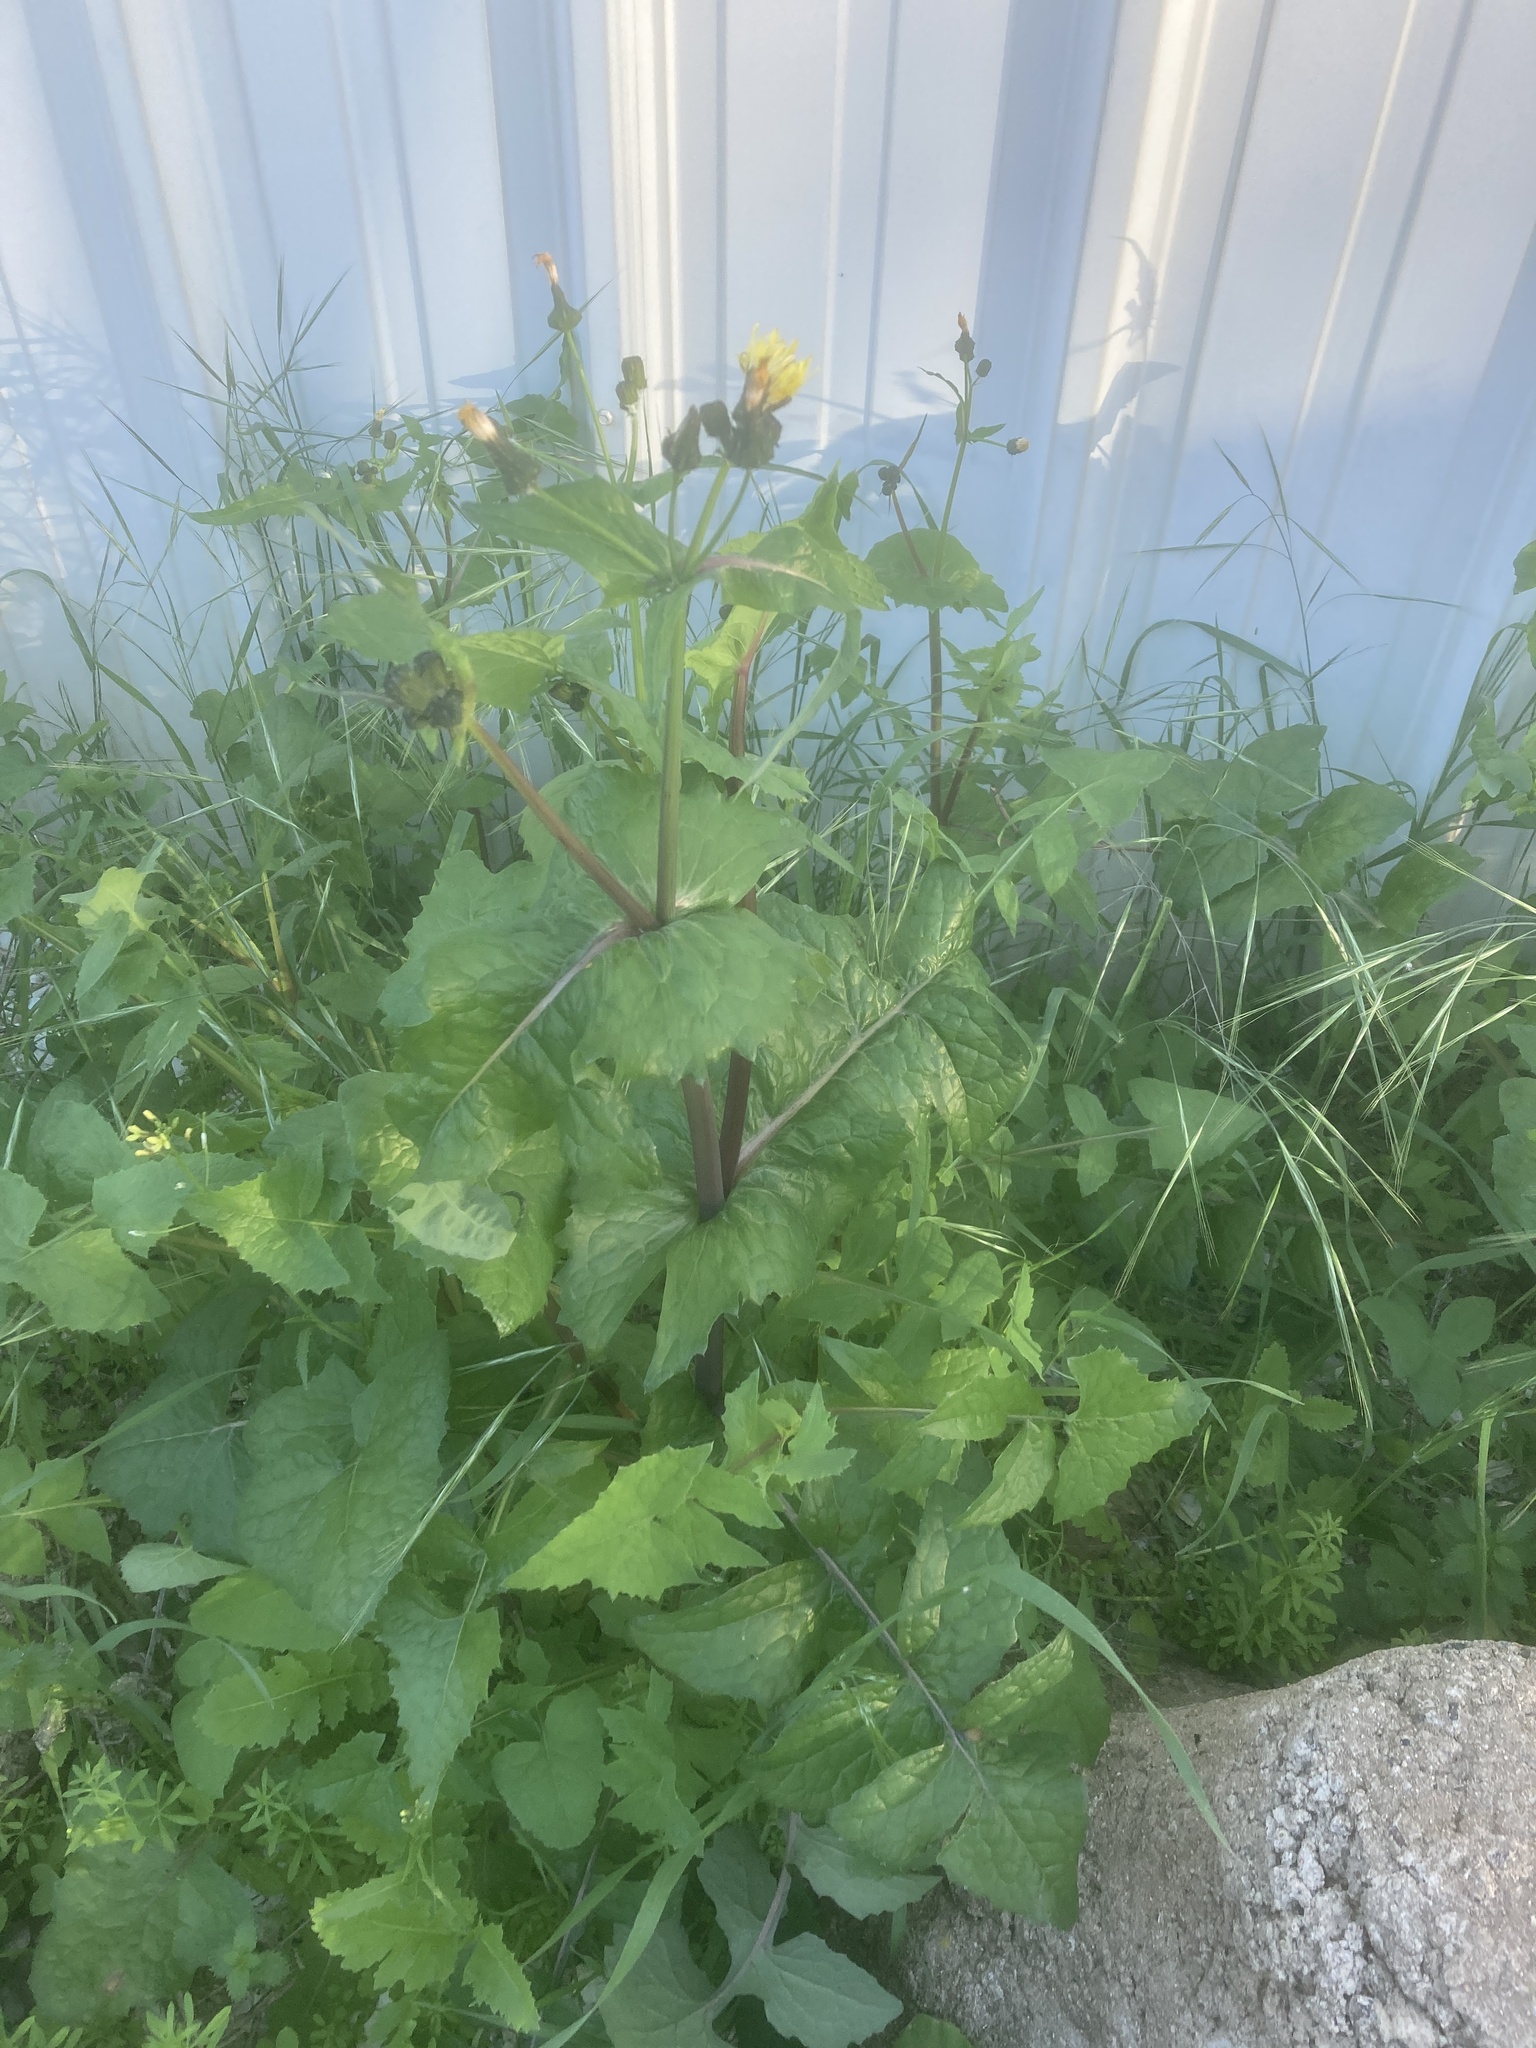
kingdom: Plantae
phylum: Tracheophyta
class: Magnoliopsida
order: Asterales
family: Asteraceae
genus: Sonchus
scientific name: Sonchus oleraceus
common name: Common sowthistle
